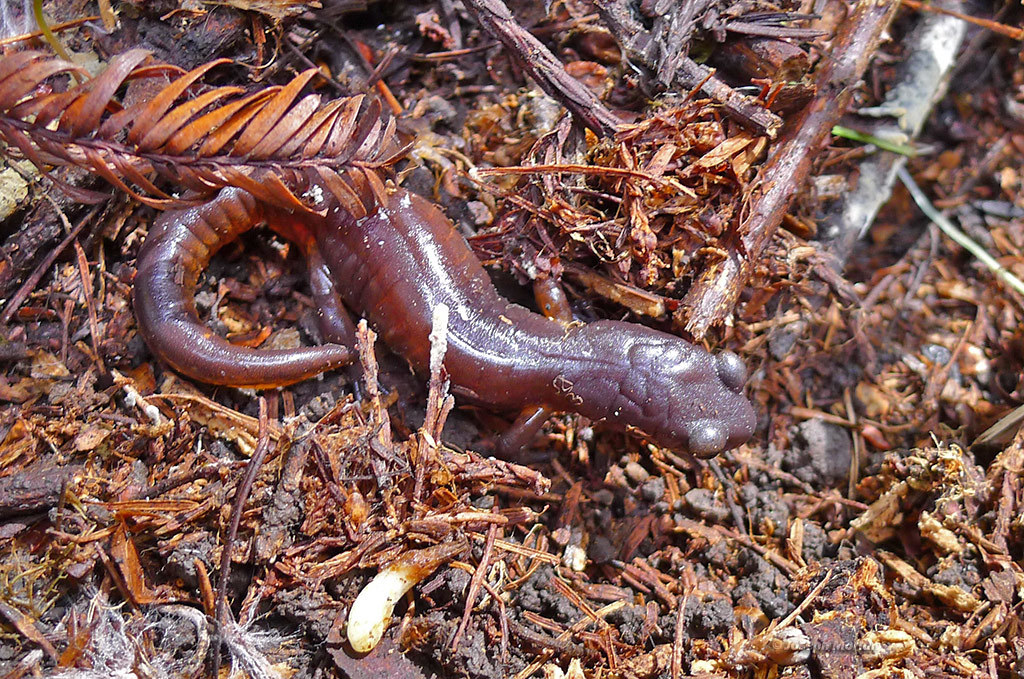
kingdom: Animalia
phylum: Chordata
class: Amphibia
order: Caudata
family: Plethodontidae
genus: Ensatina
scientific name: Ensatina eschscholtzii
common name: Ensatina
